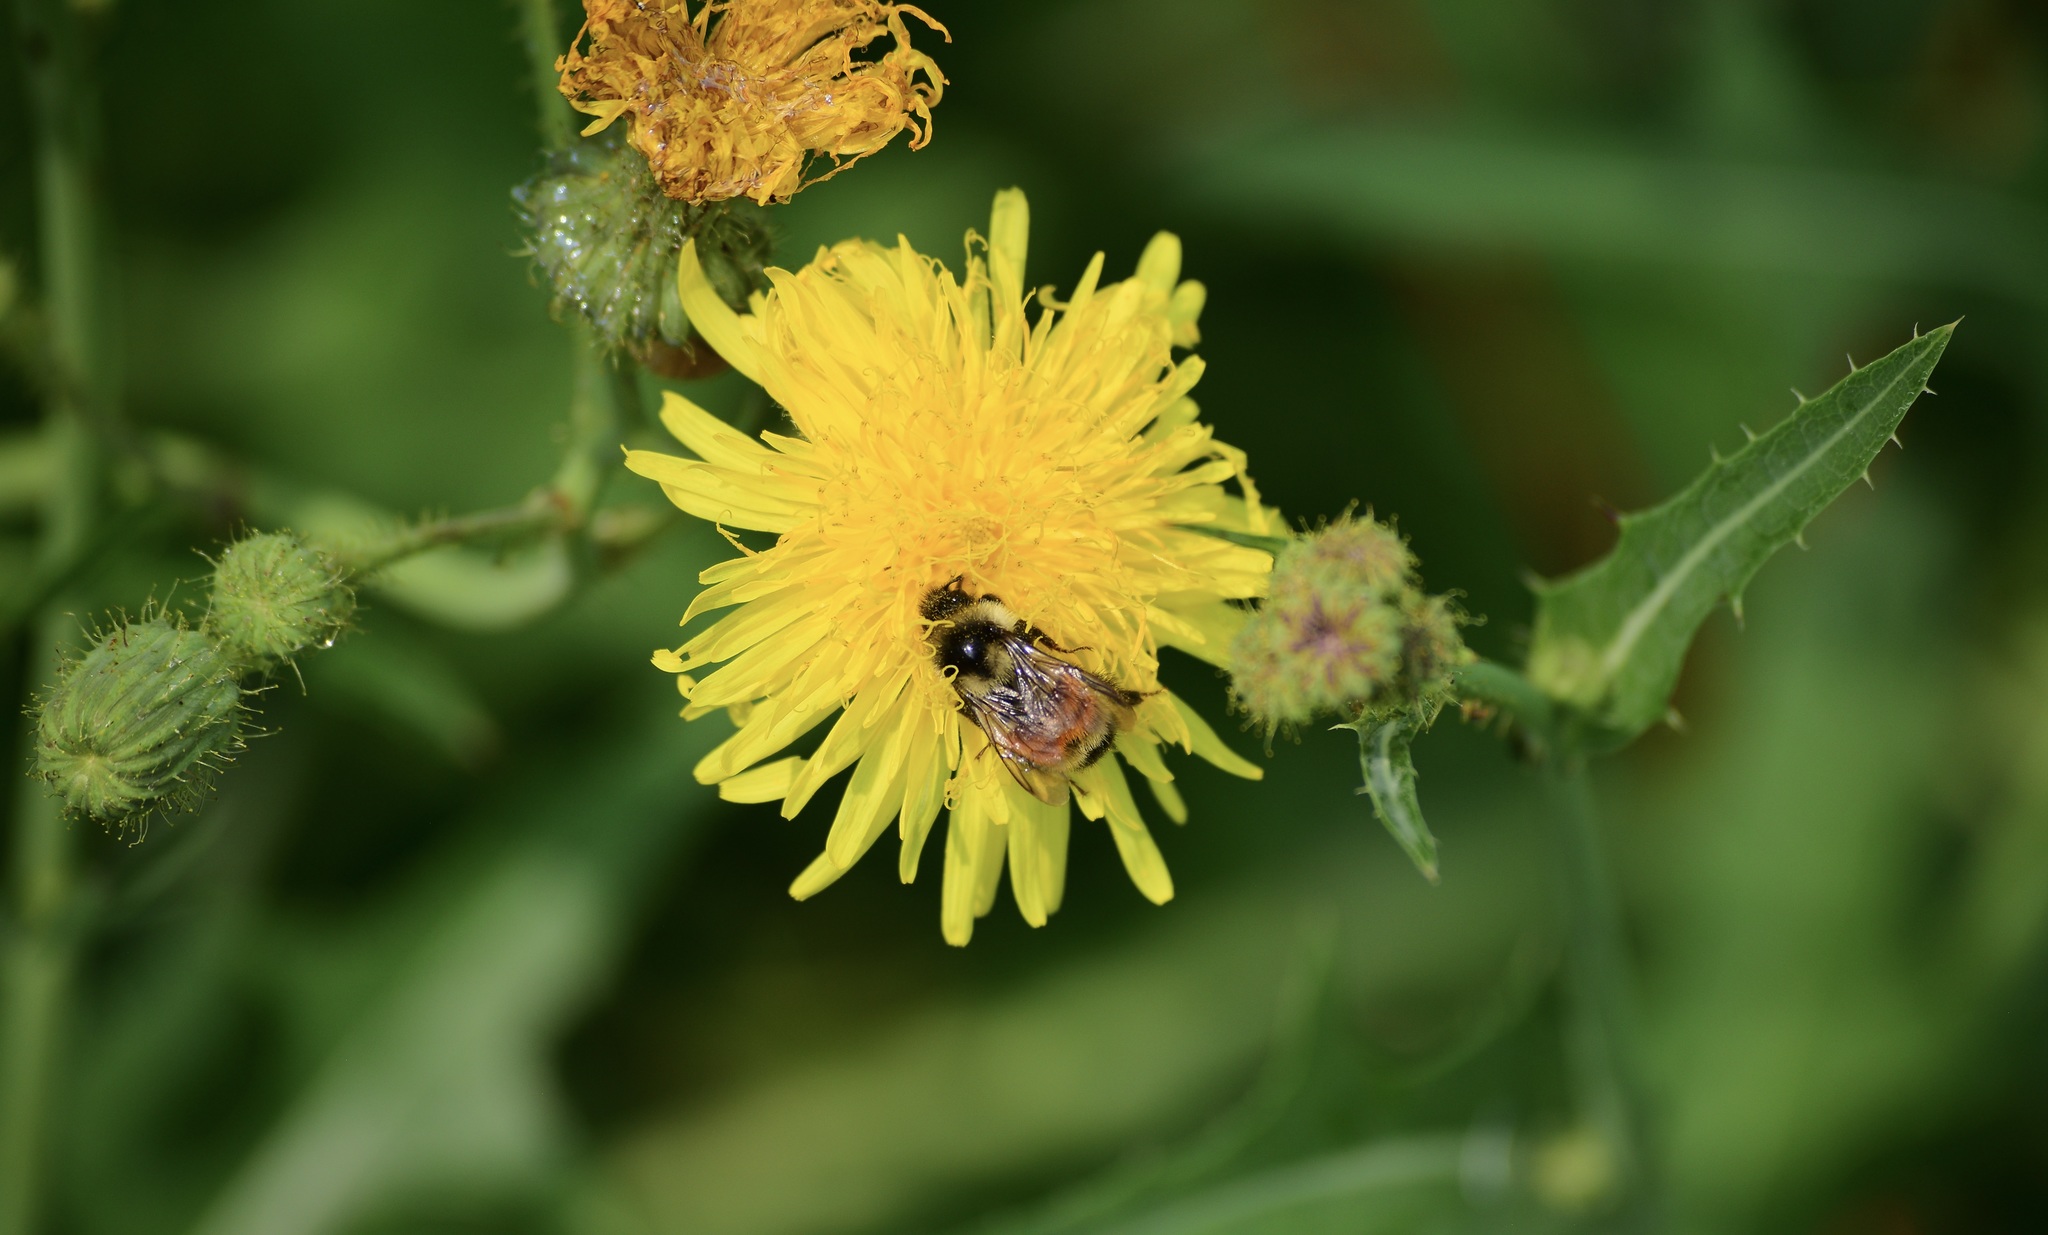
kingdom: Animalia
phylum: Arthropoda
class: Insecta
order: Hymenoptera
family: Apidae
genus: Bombus
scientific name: Bombus ternarius
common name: Tri-colored bumble bee
